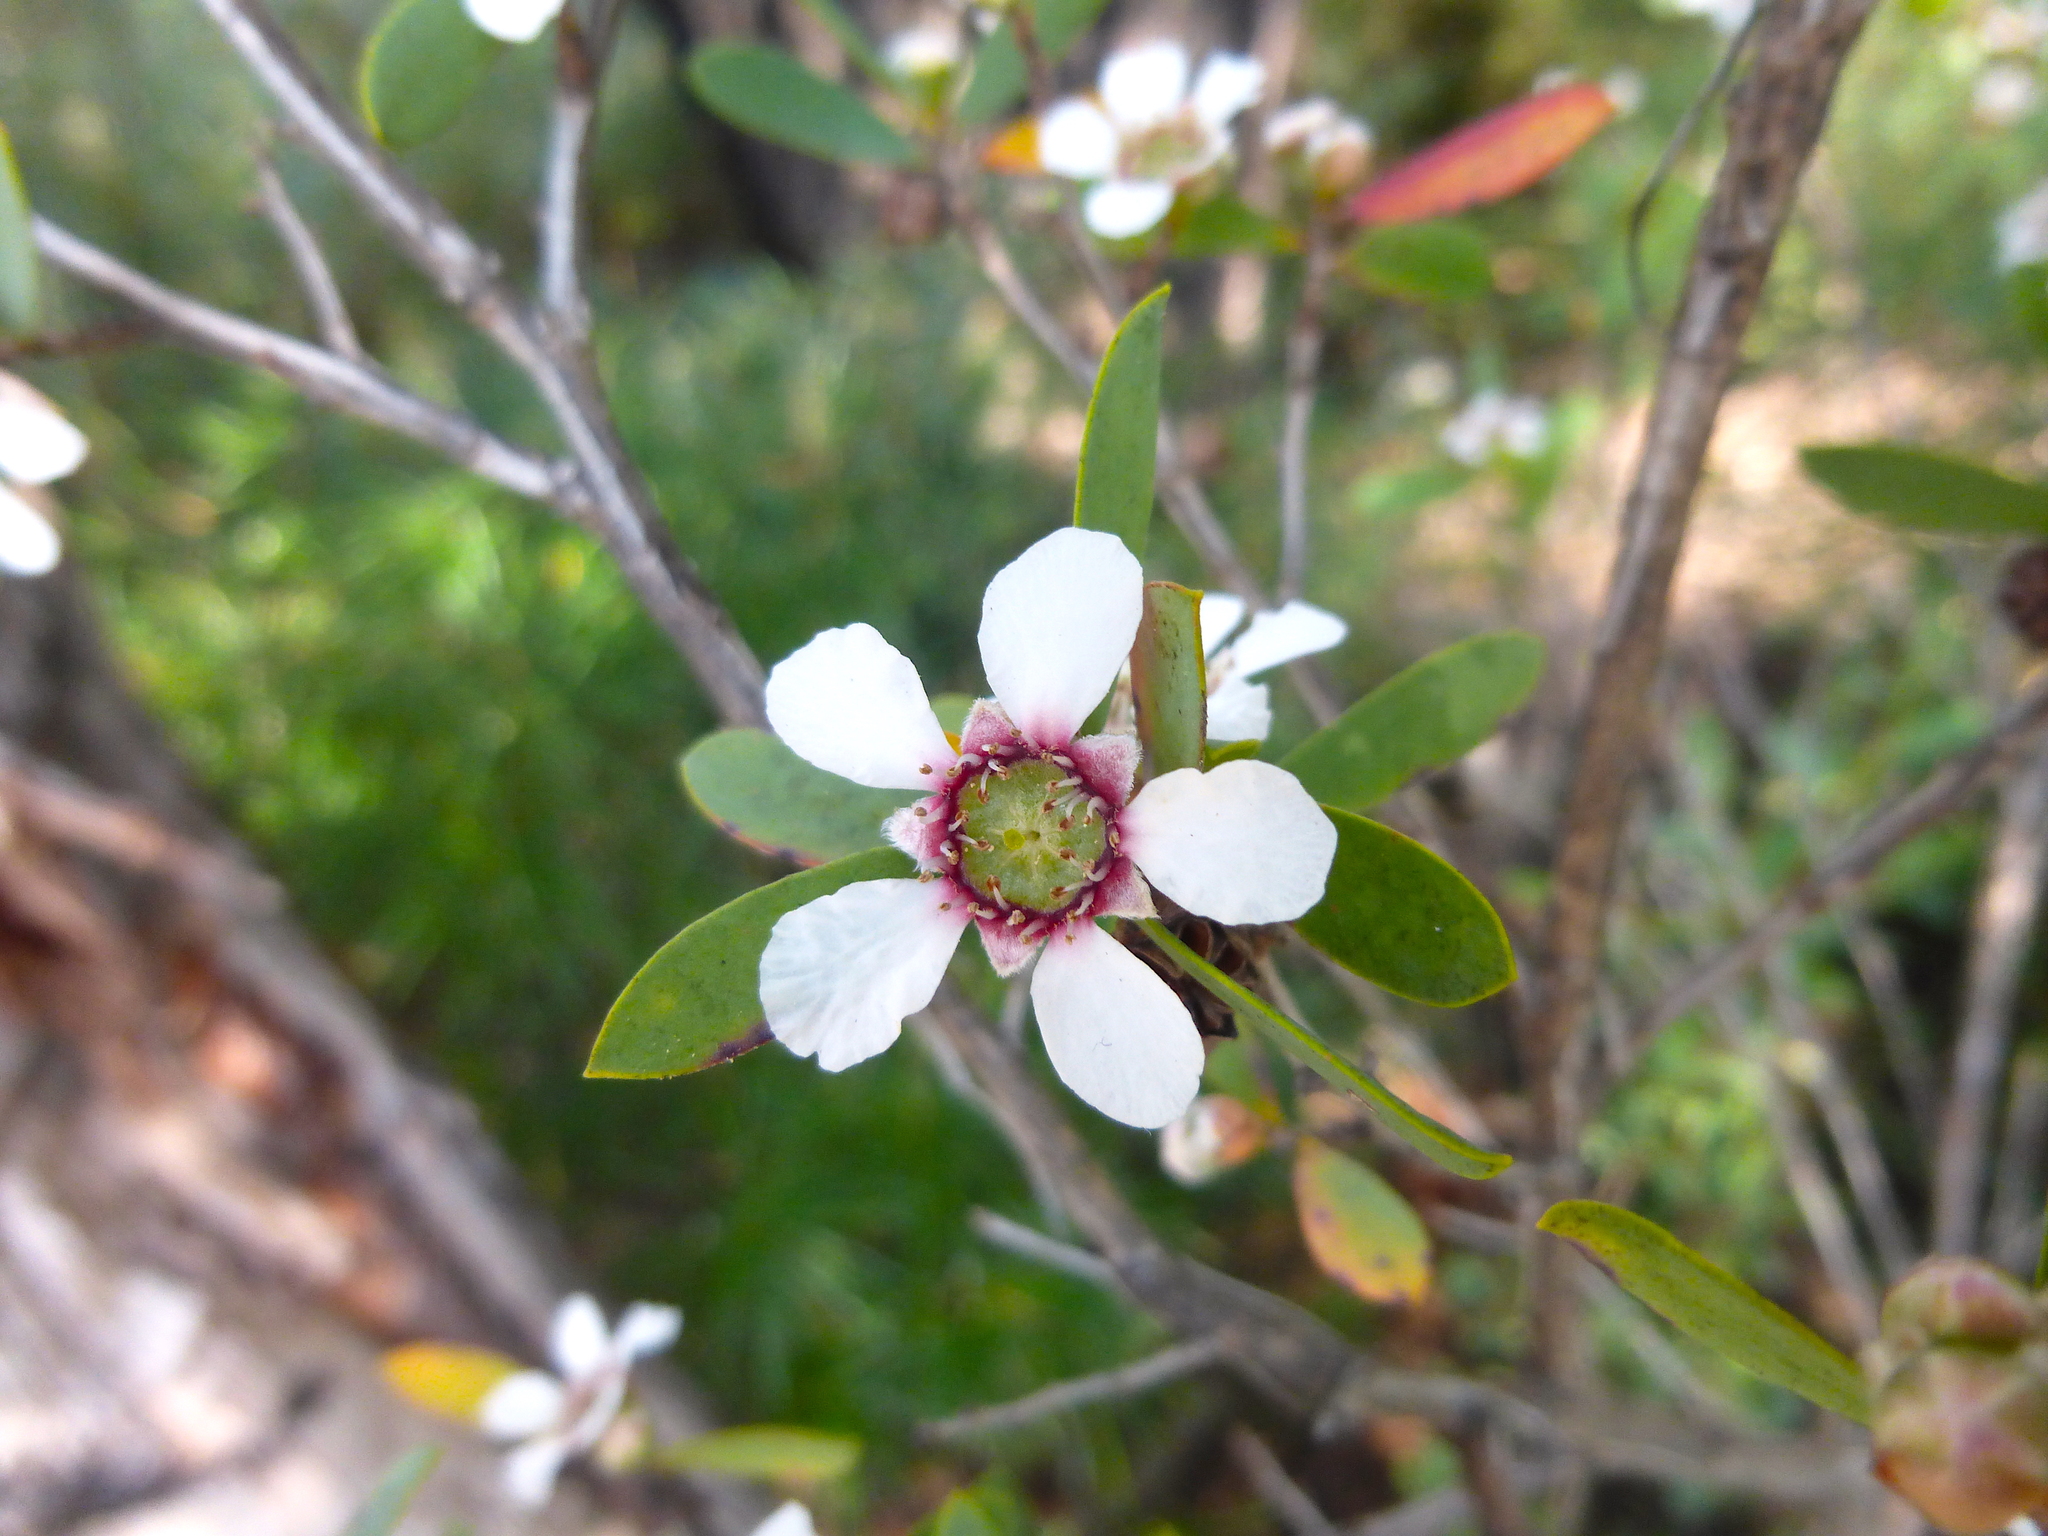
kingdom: Plantae
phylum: Tracheophyta
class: Magnoliopsida
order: Myrtales
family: Myrtaceae
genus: Leptospermum
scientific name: Leptospermum laevigatum
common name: Australian teatree
